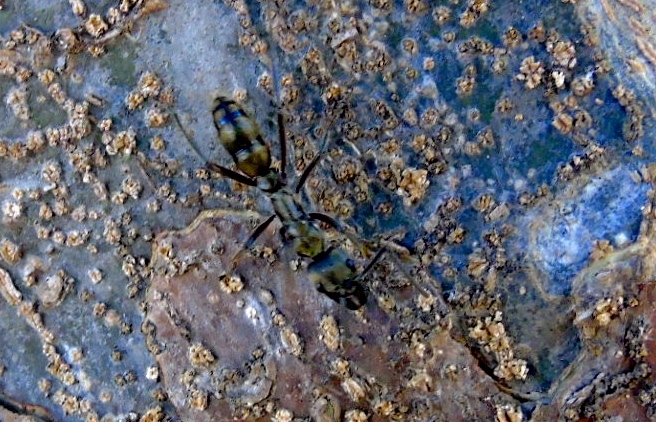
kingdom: Animalia
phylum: Arthropoda
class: Insecta
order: Hymenoptera
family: Formicidae
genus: Pachycondyla
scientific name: Pachycondyla villosa
